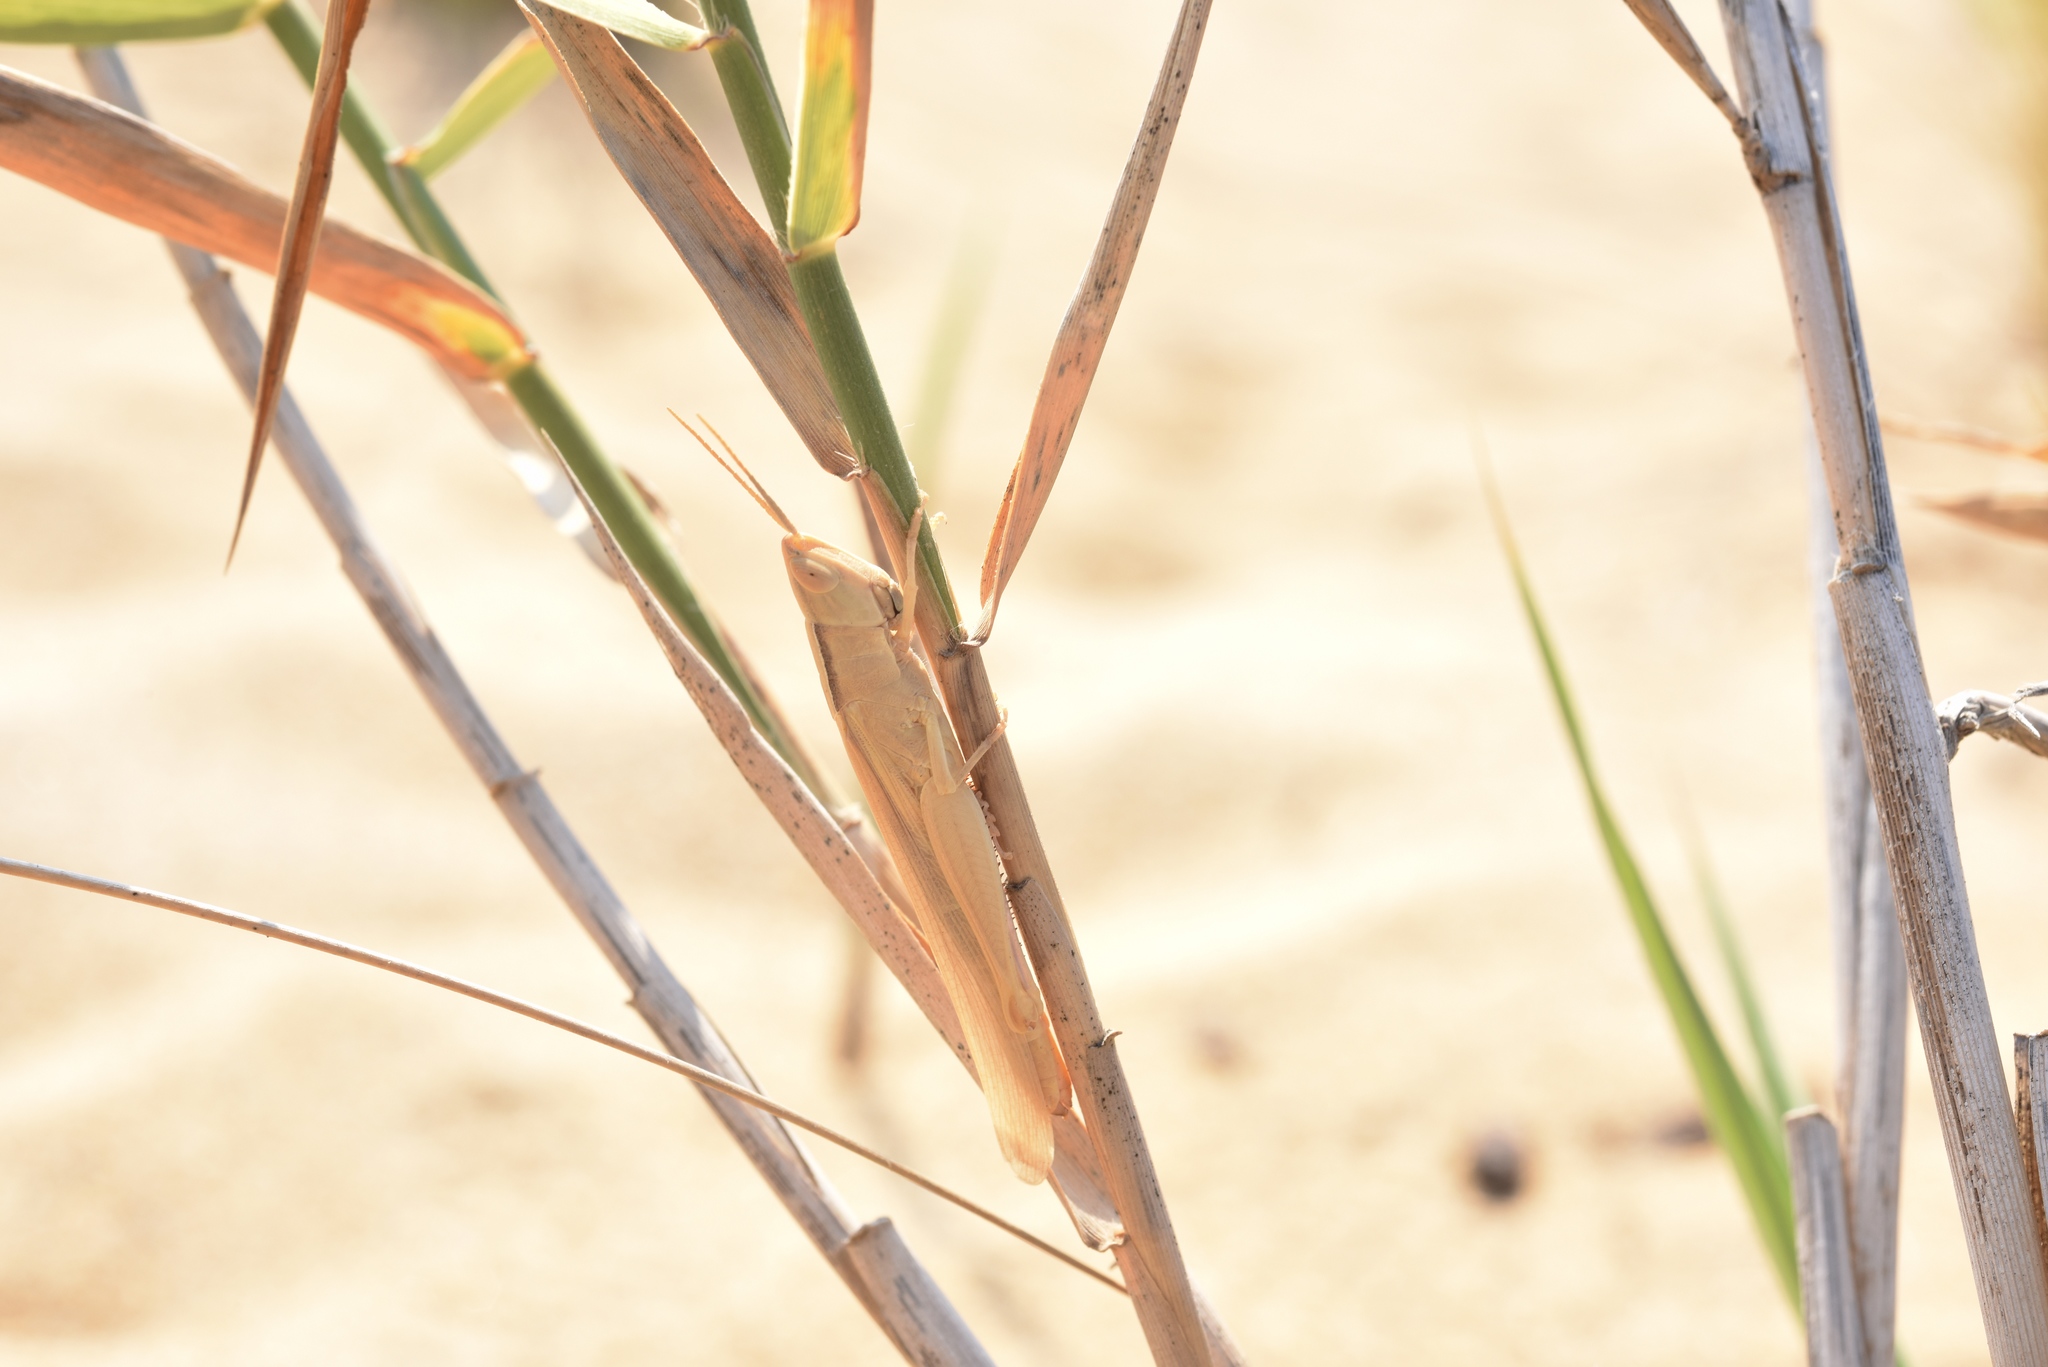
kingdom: Animalia
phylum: Arthropoda
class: Insecta
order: Orthoptera
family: Acrididae
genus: Ochrilidia
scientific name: Ochrilidia nuragica
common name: Sardinian cylindric grasshopper
